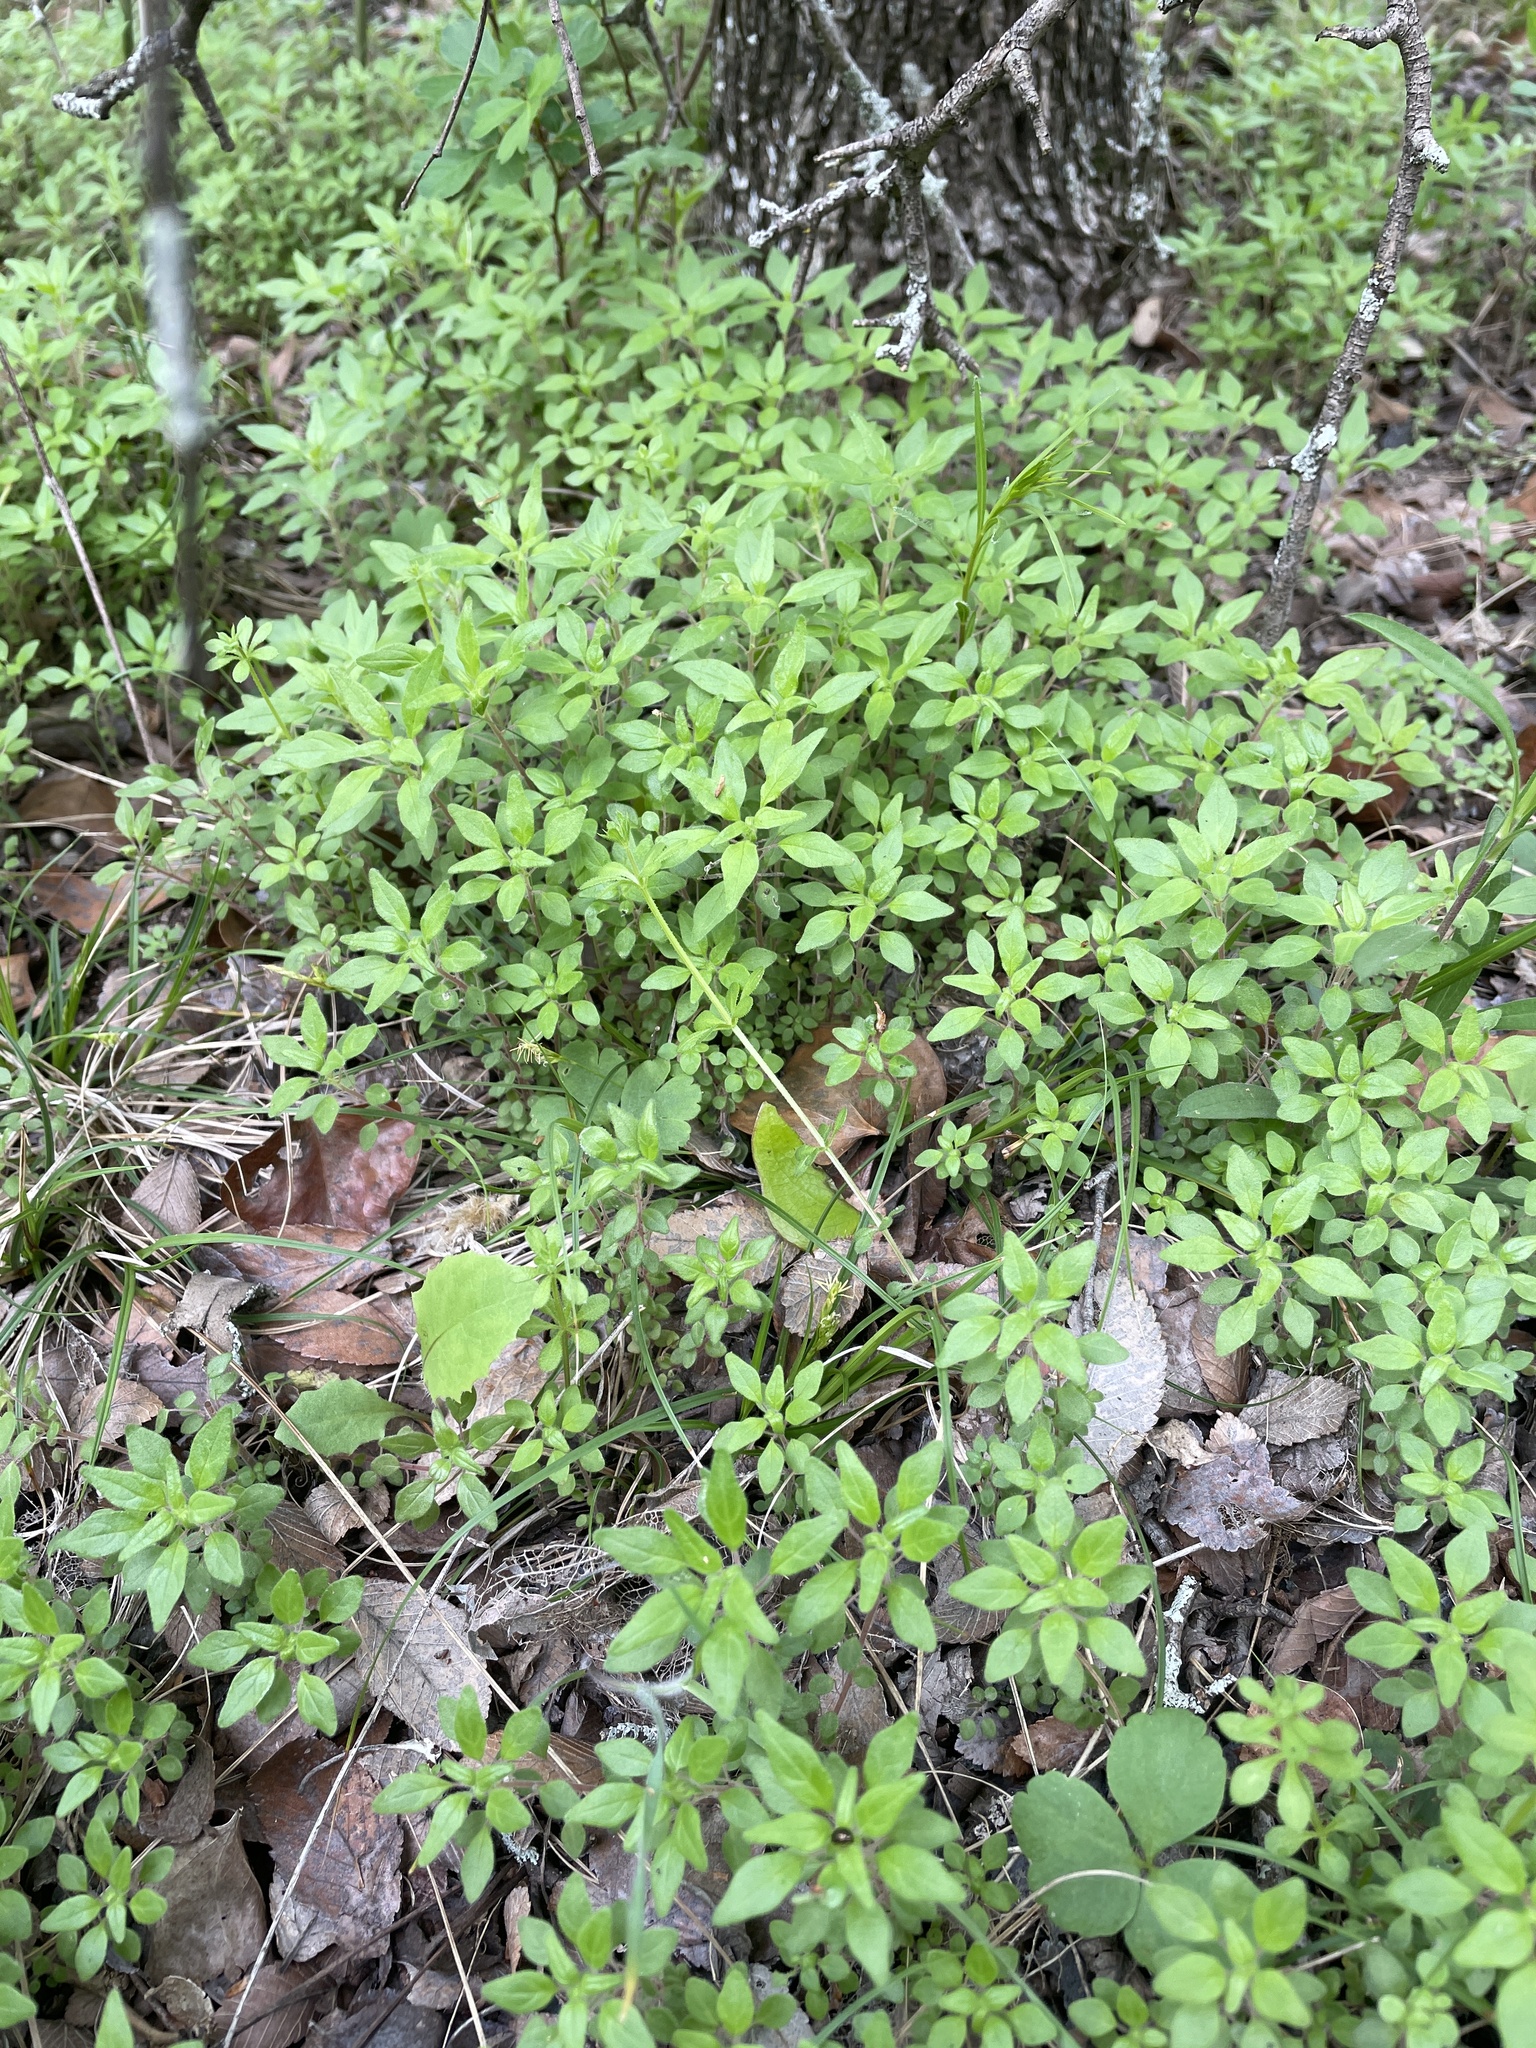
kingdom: Plantae
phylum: Tracheophyta
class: Magnoliopsida
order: Rosales
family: Urticaceae
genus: Parietaria
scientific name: Parietaria pensylvanica
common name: Pennsylvania pellitory
